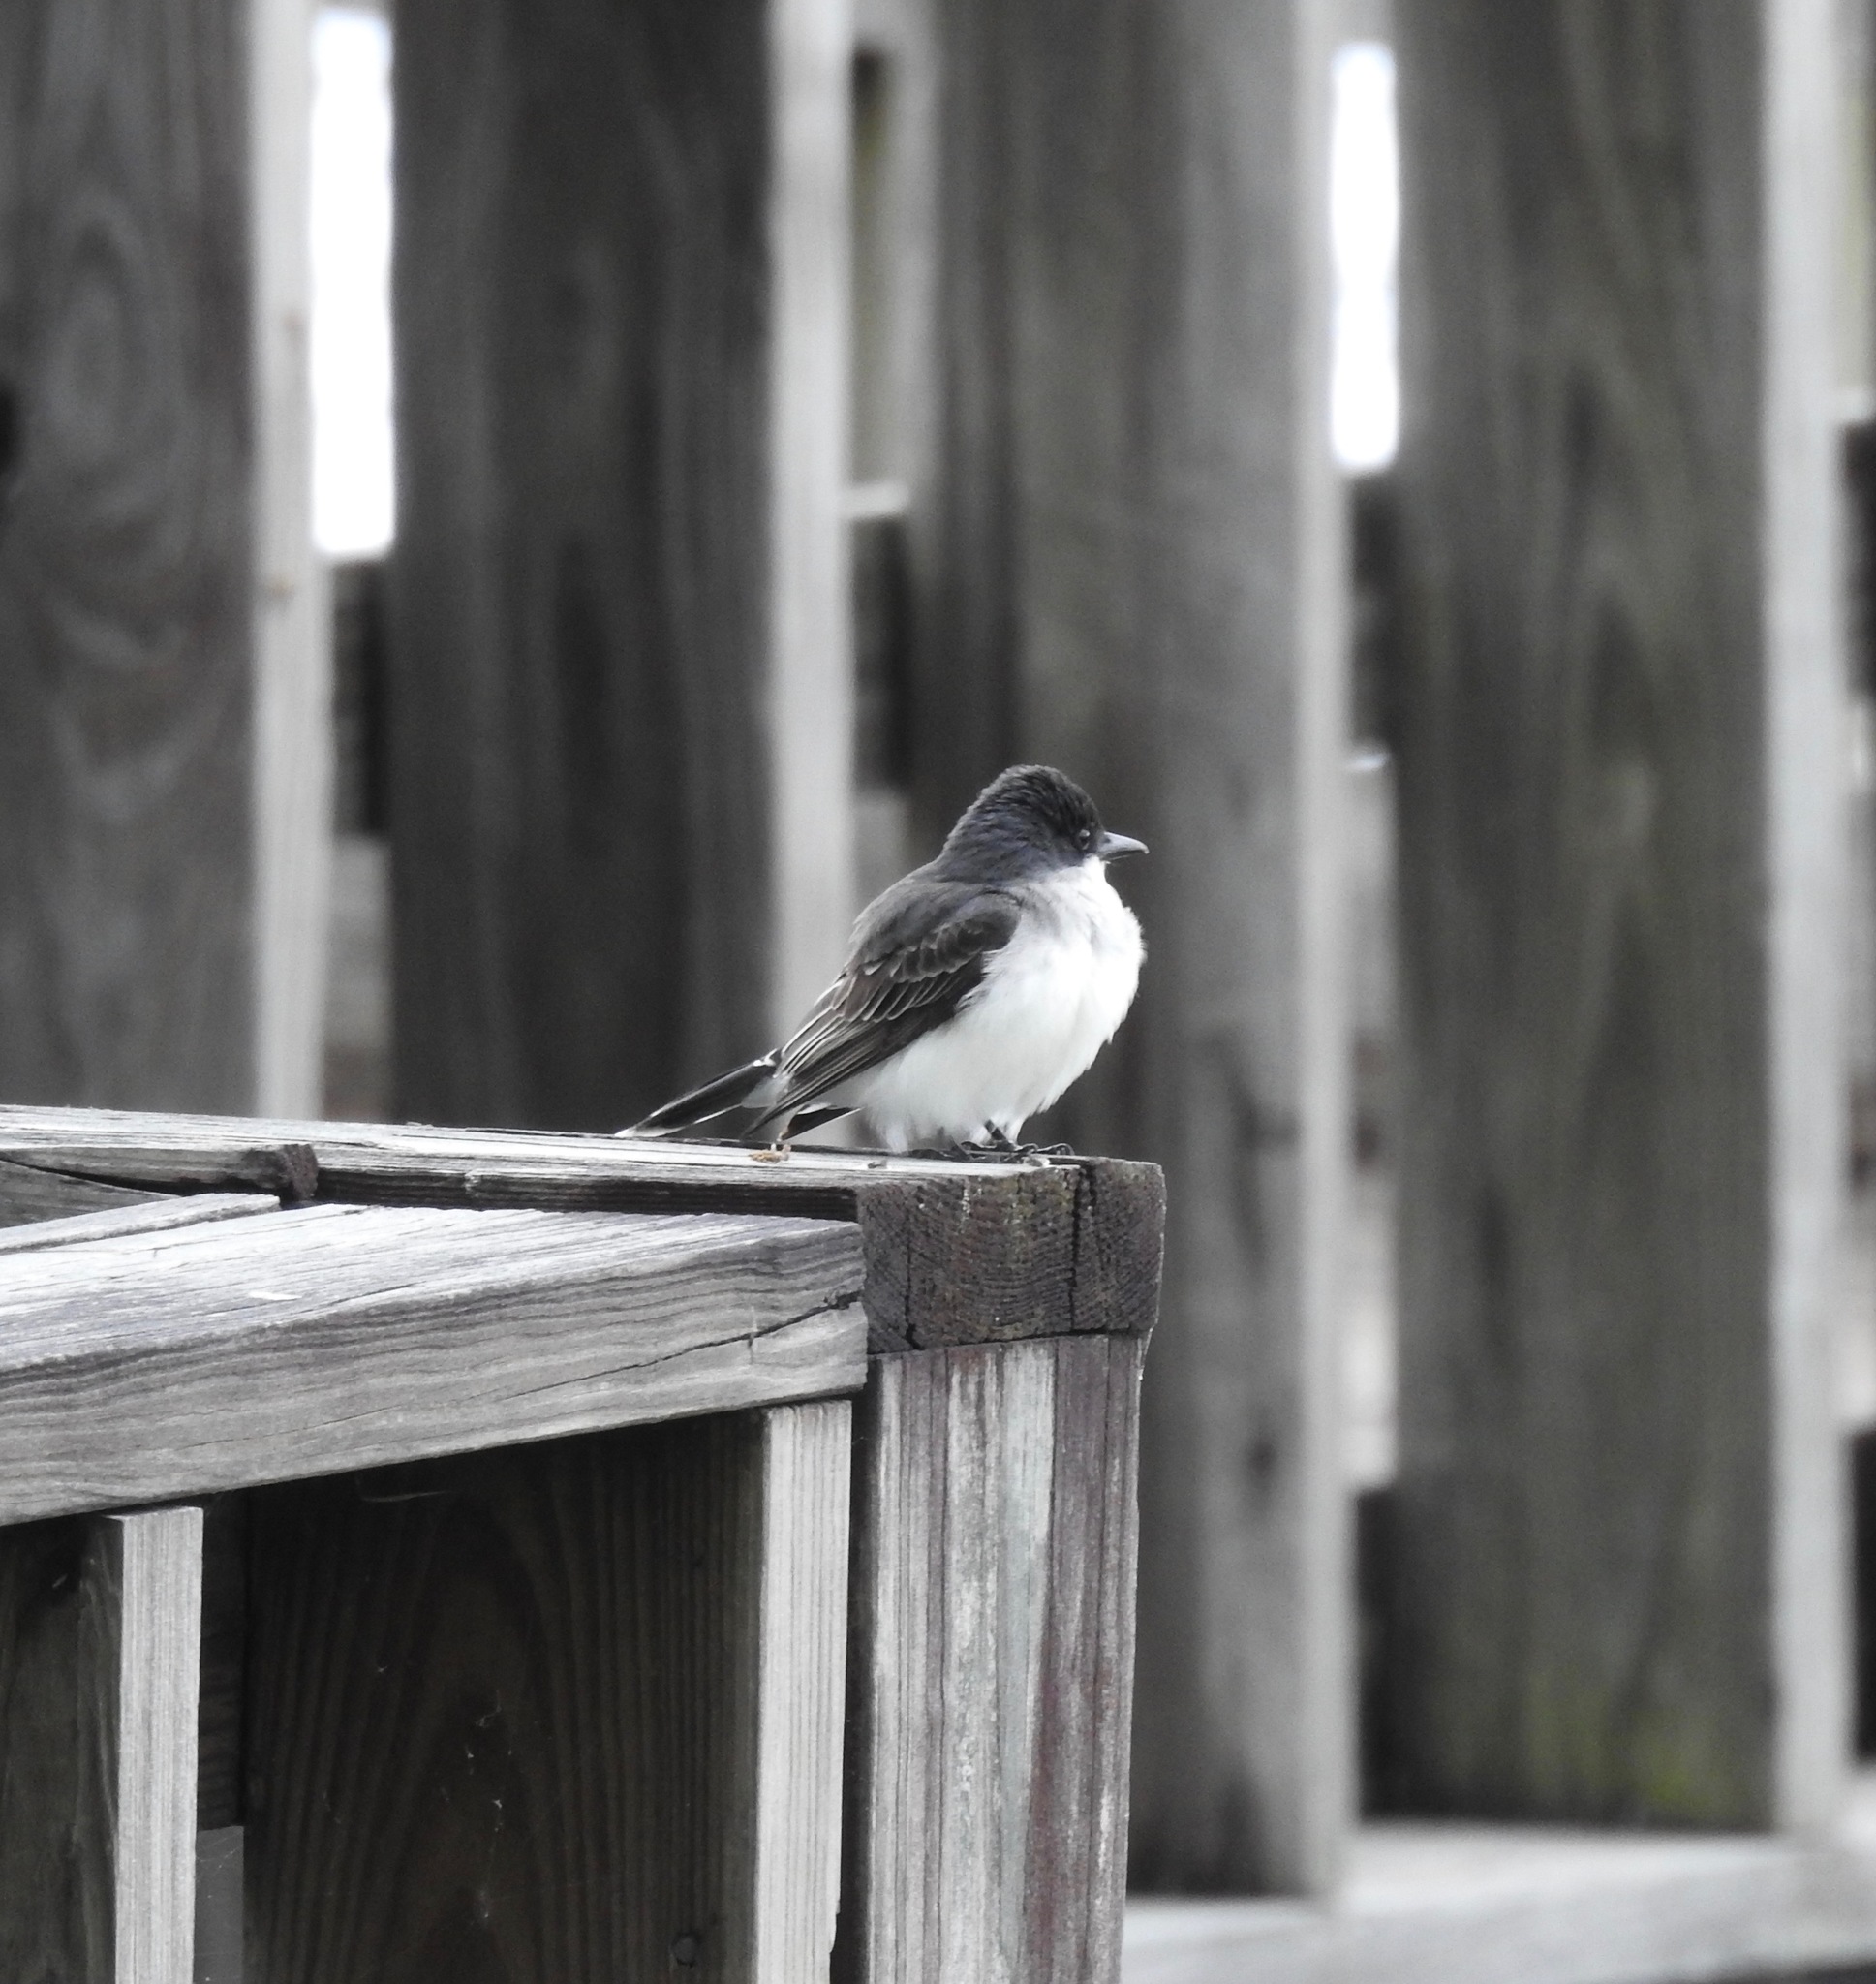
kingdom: Animalia
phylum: Chordata
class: Aves
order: Passeriformes
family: Tyrannidae
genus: Tyrannus
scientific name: Tyrannus tyrannus
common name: Eastern kingbird
